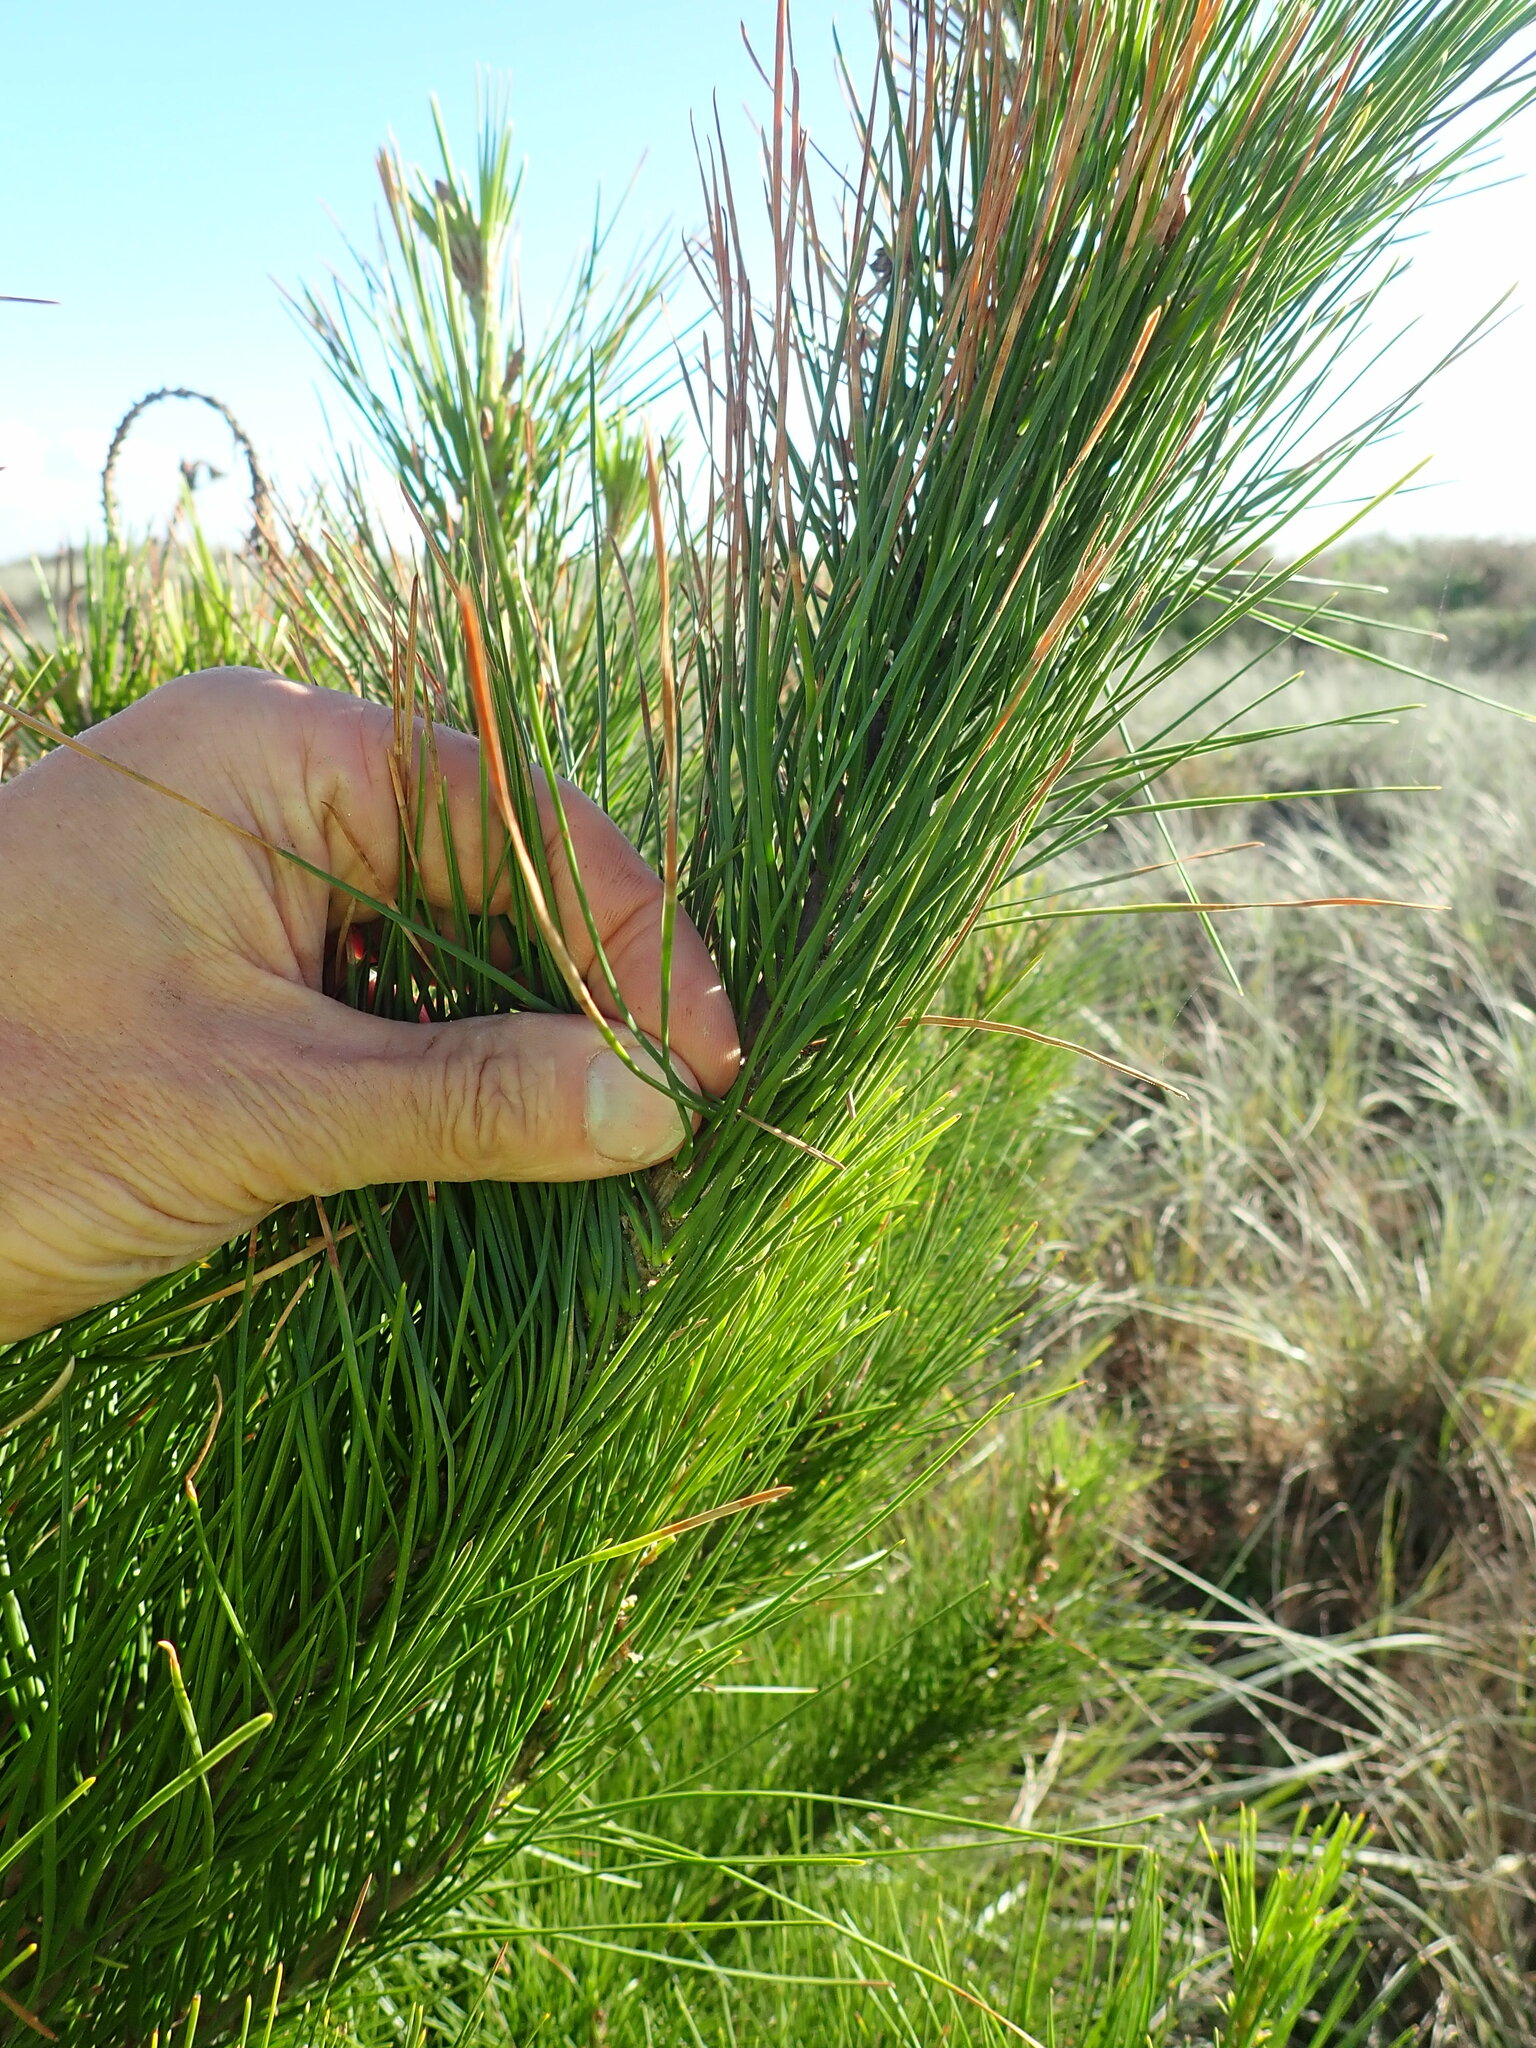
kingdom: Plantae
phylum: Tracheophyta
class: Pinopsida
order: Pinales
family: Pinaceae
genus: Pinus
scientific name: Pinus radiata
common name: Monterey pine
